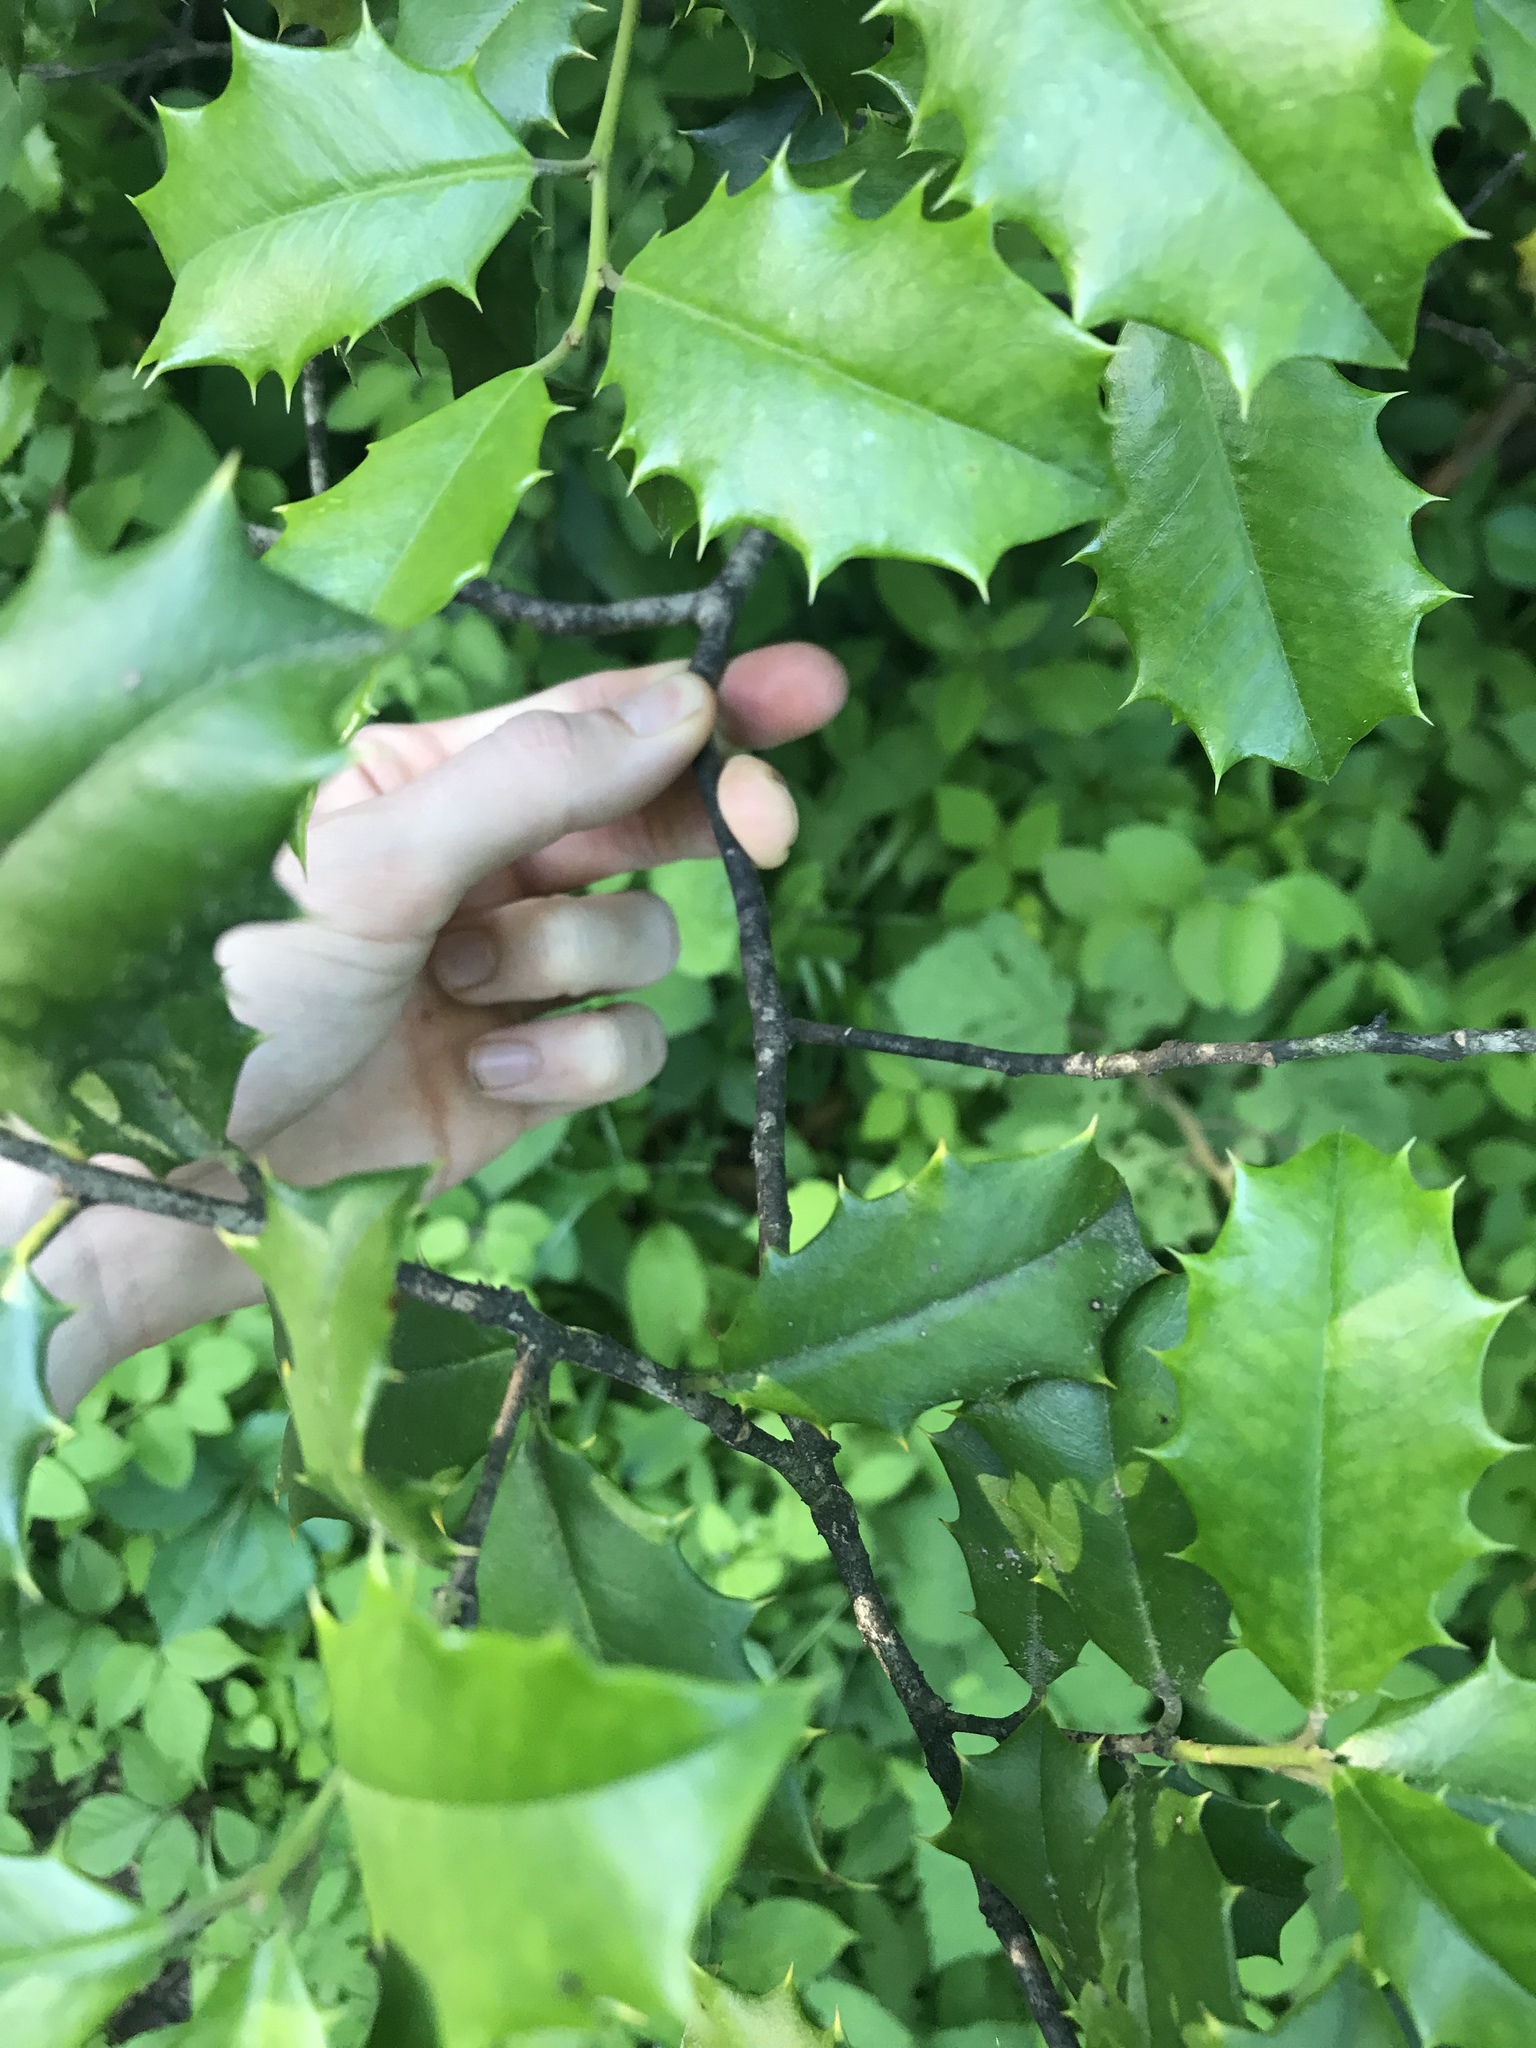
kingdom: Plantae
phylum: Tracheophyta
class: Magnoliopsida
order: Aquifoliales
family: Aquifoliaceae
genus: Ilex
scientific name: Ilex opaca
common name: American holly
